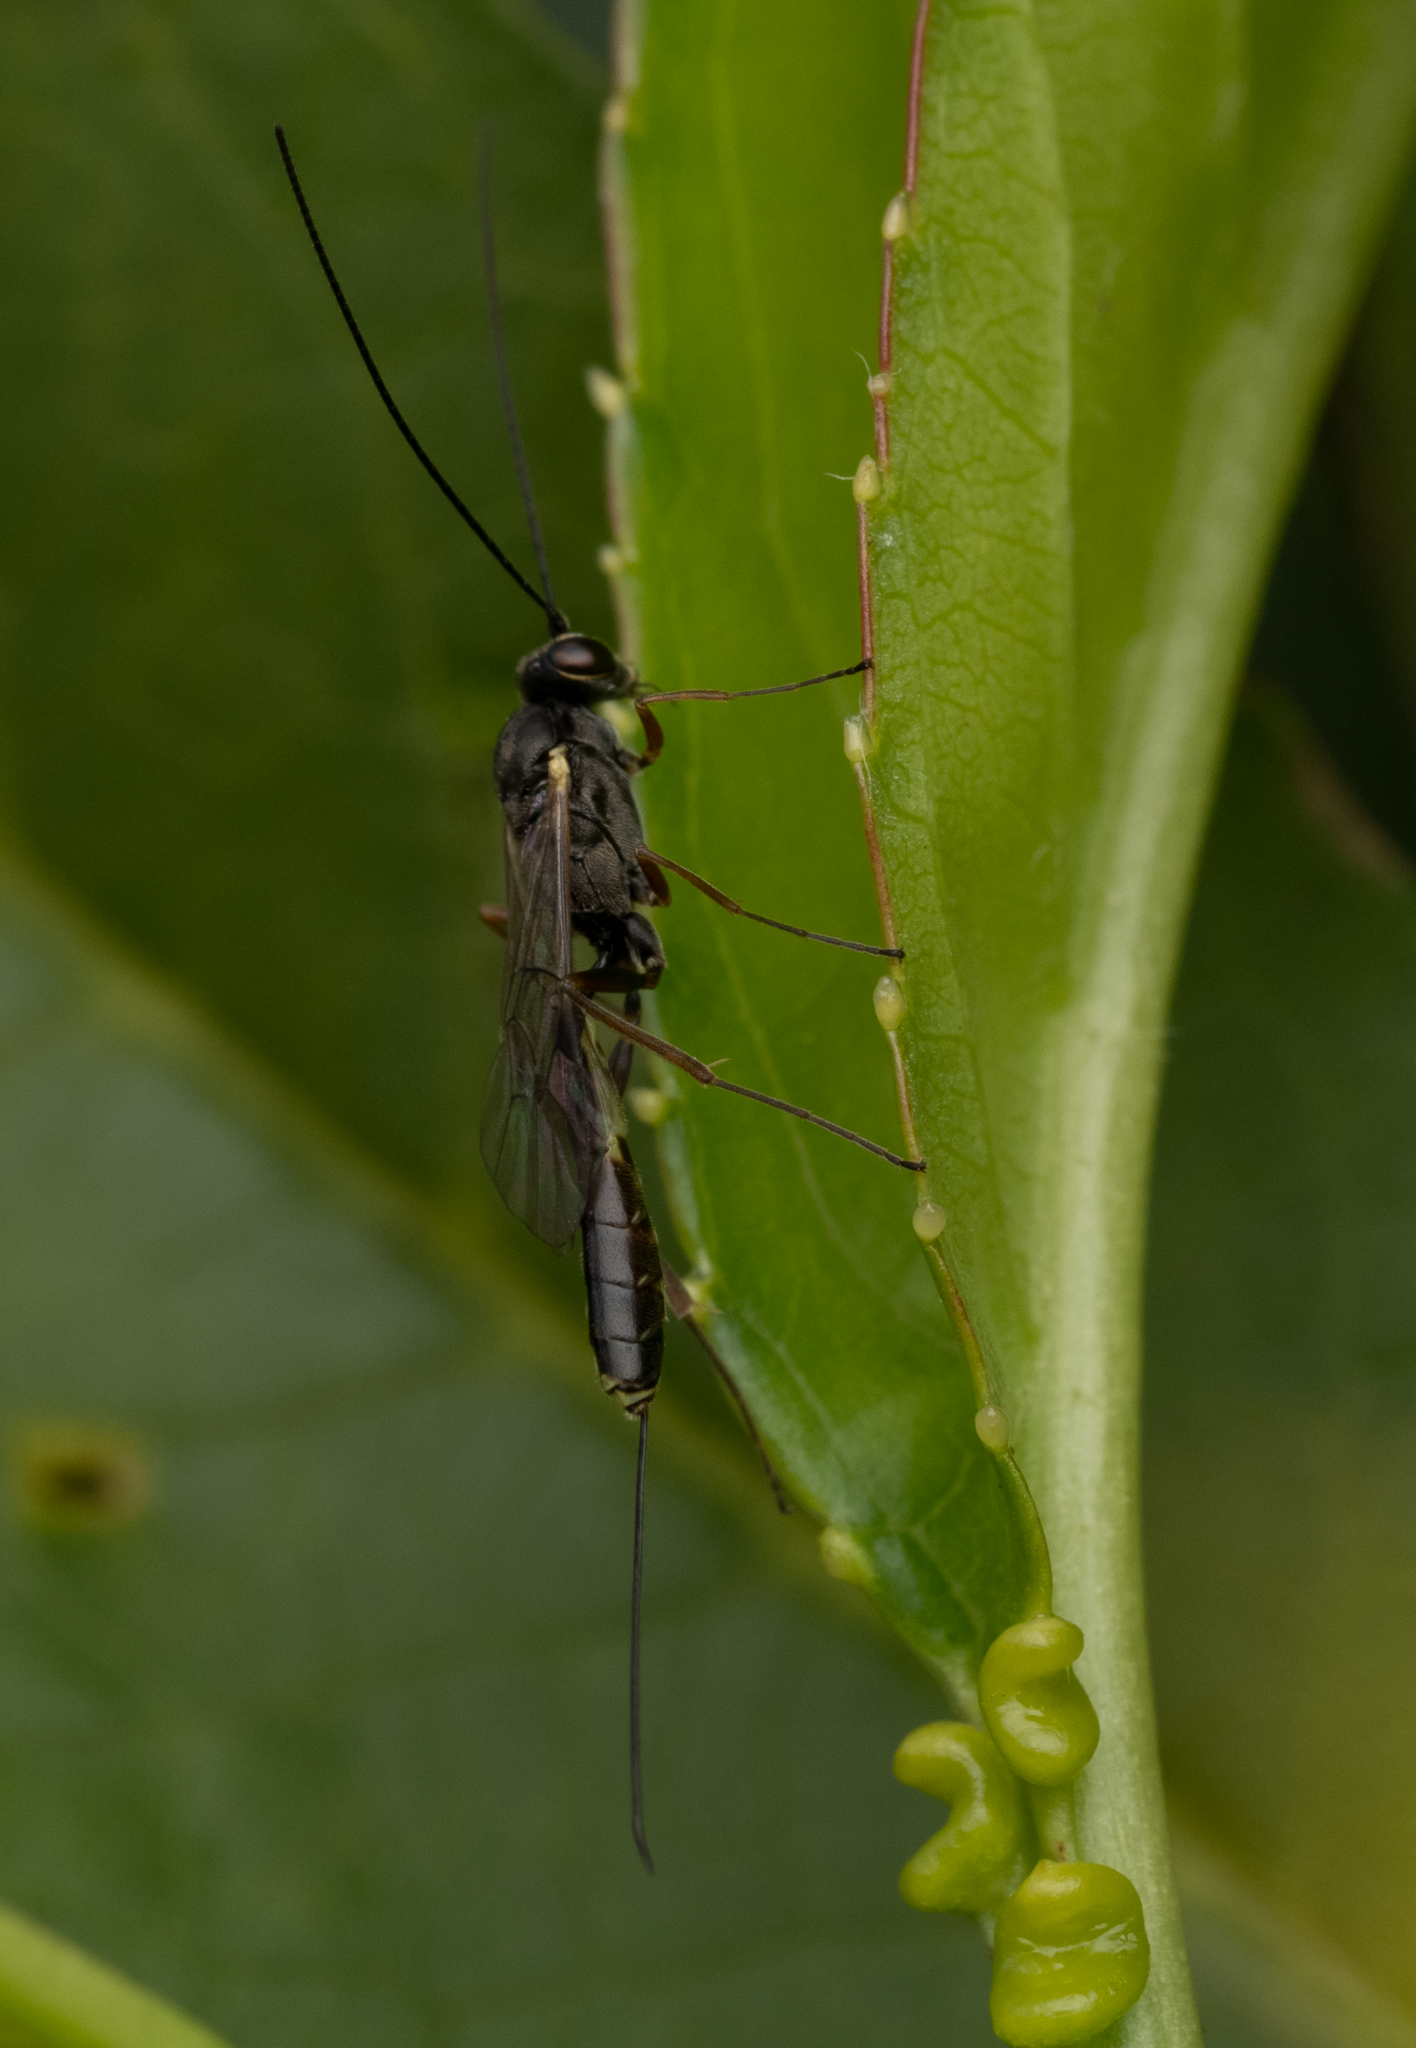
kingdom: Animalia
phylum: Arthropoda
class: Insecta
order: Hymenoptera
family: Ichneumonidae
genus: Trathala
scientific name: Trathala agnina
